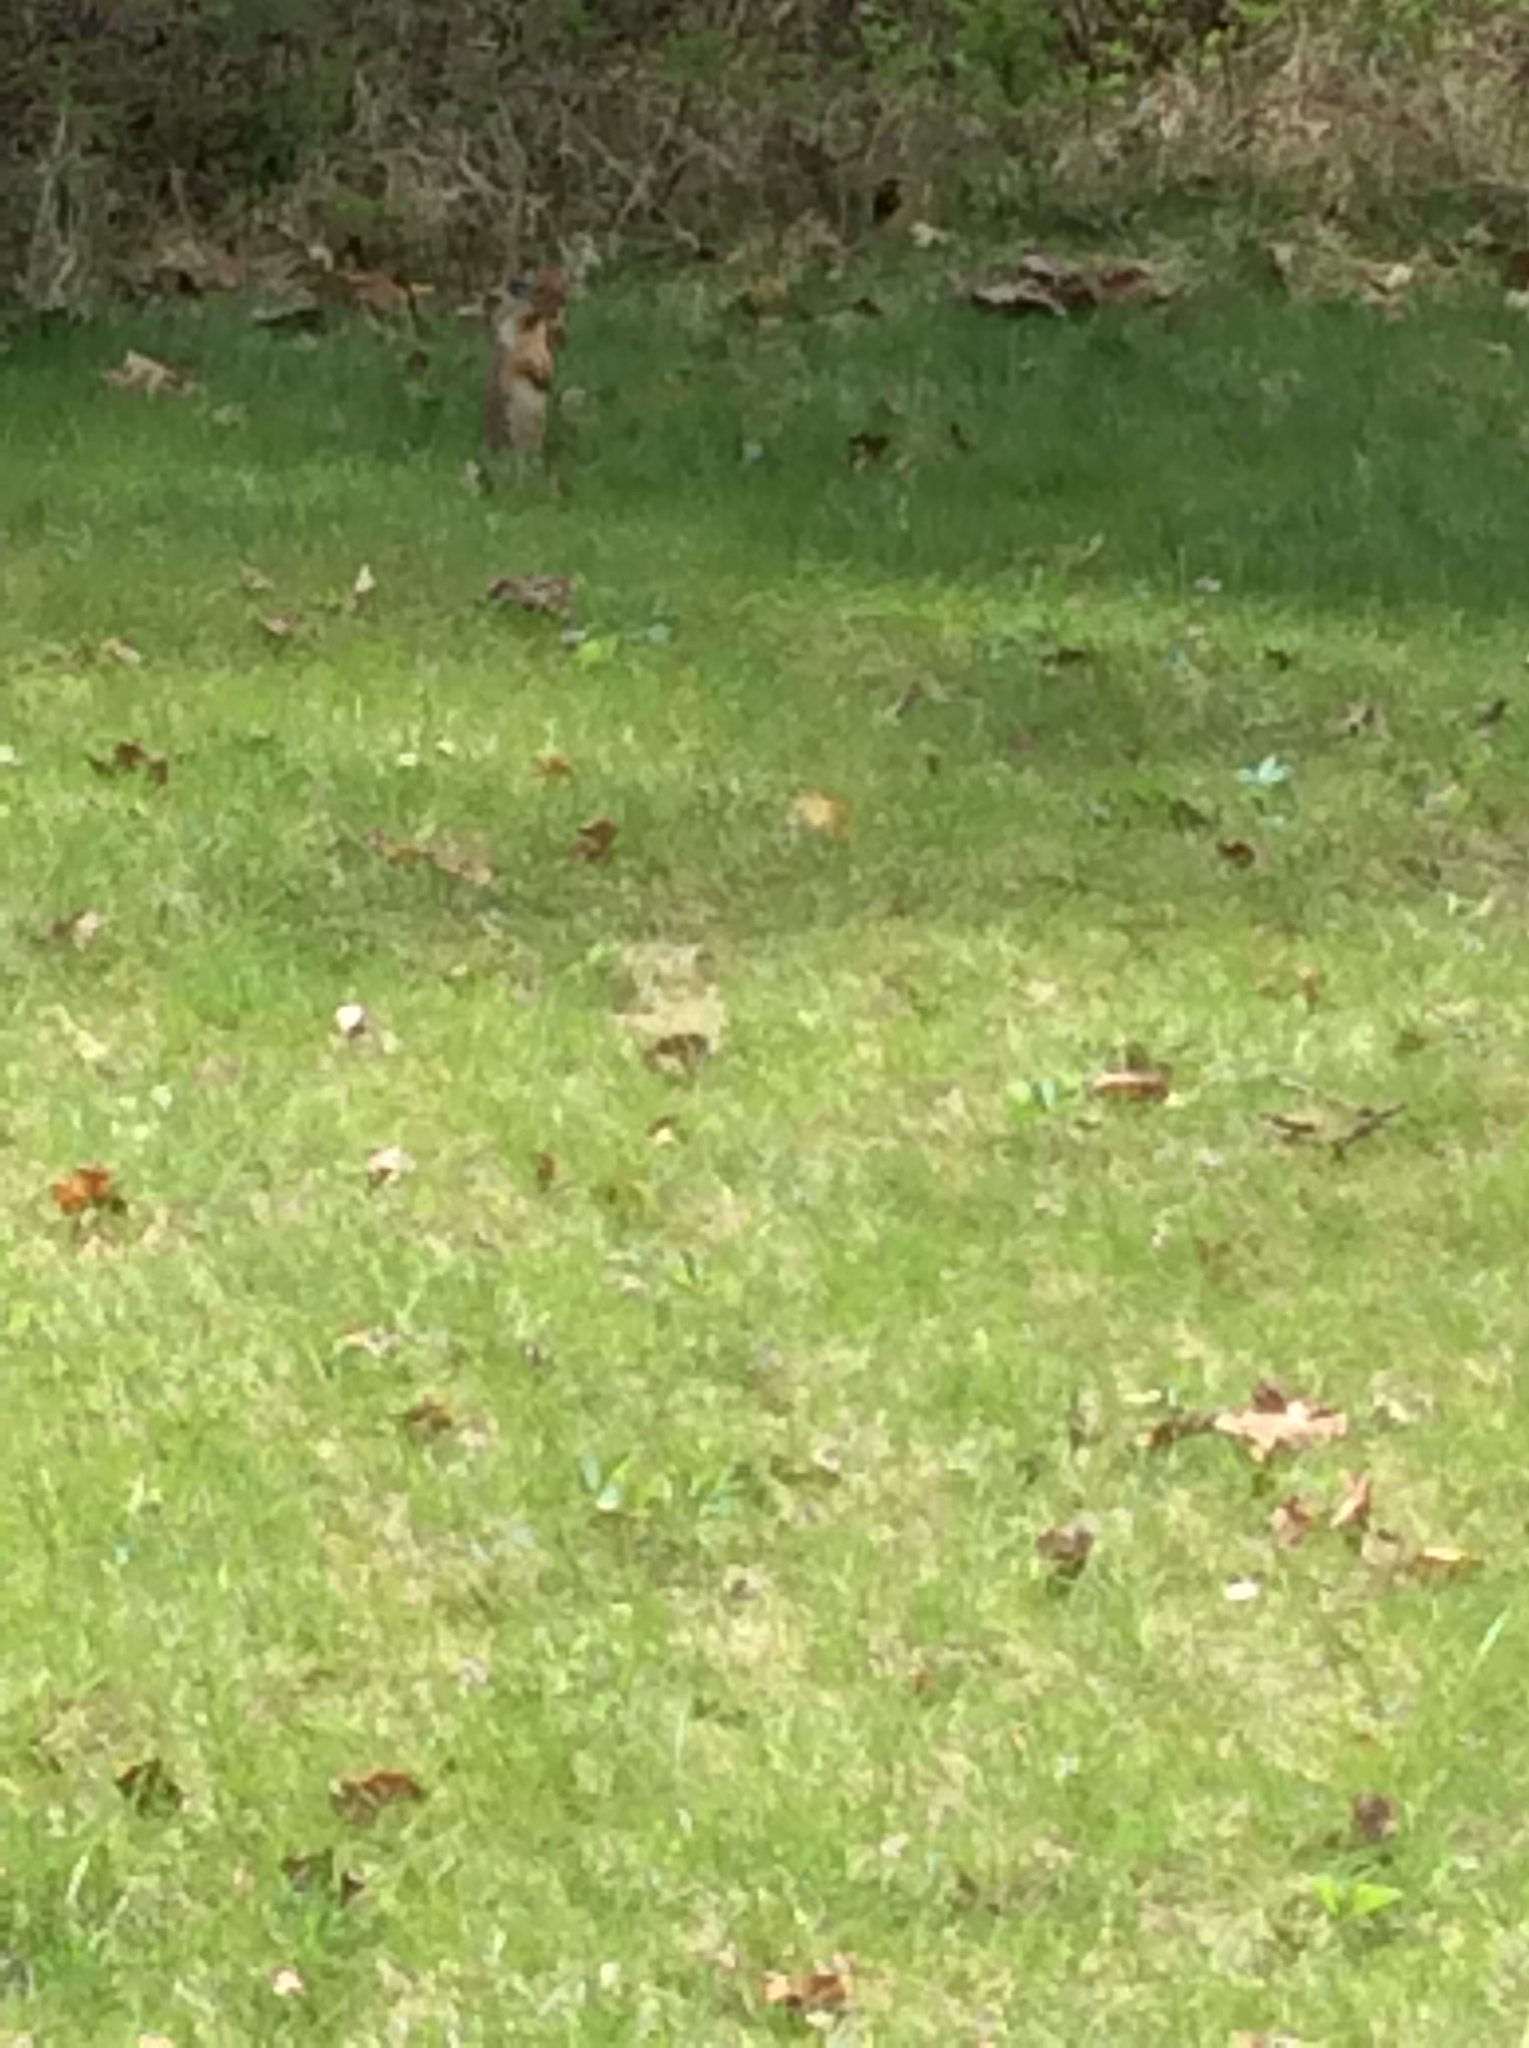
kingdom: Animalia
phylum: Chordata
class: Mammalia
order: Rodentia
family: Sciuridae
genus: Urocitellus
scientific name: Urocitellus columbianus
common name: Columbian ground squirrel
